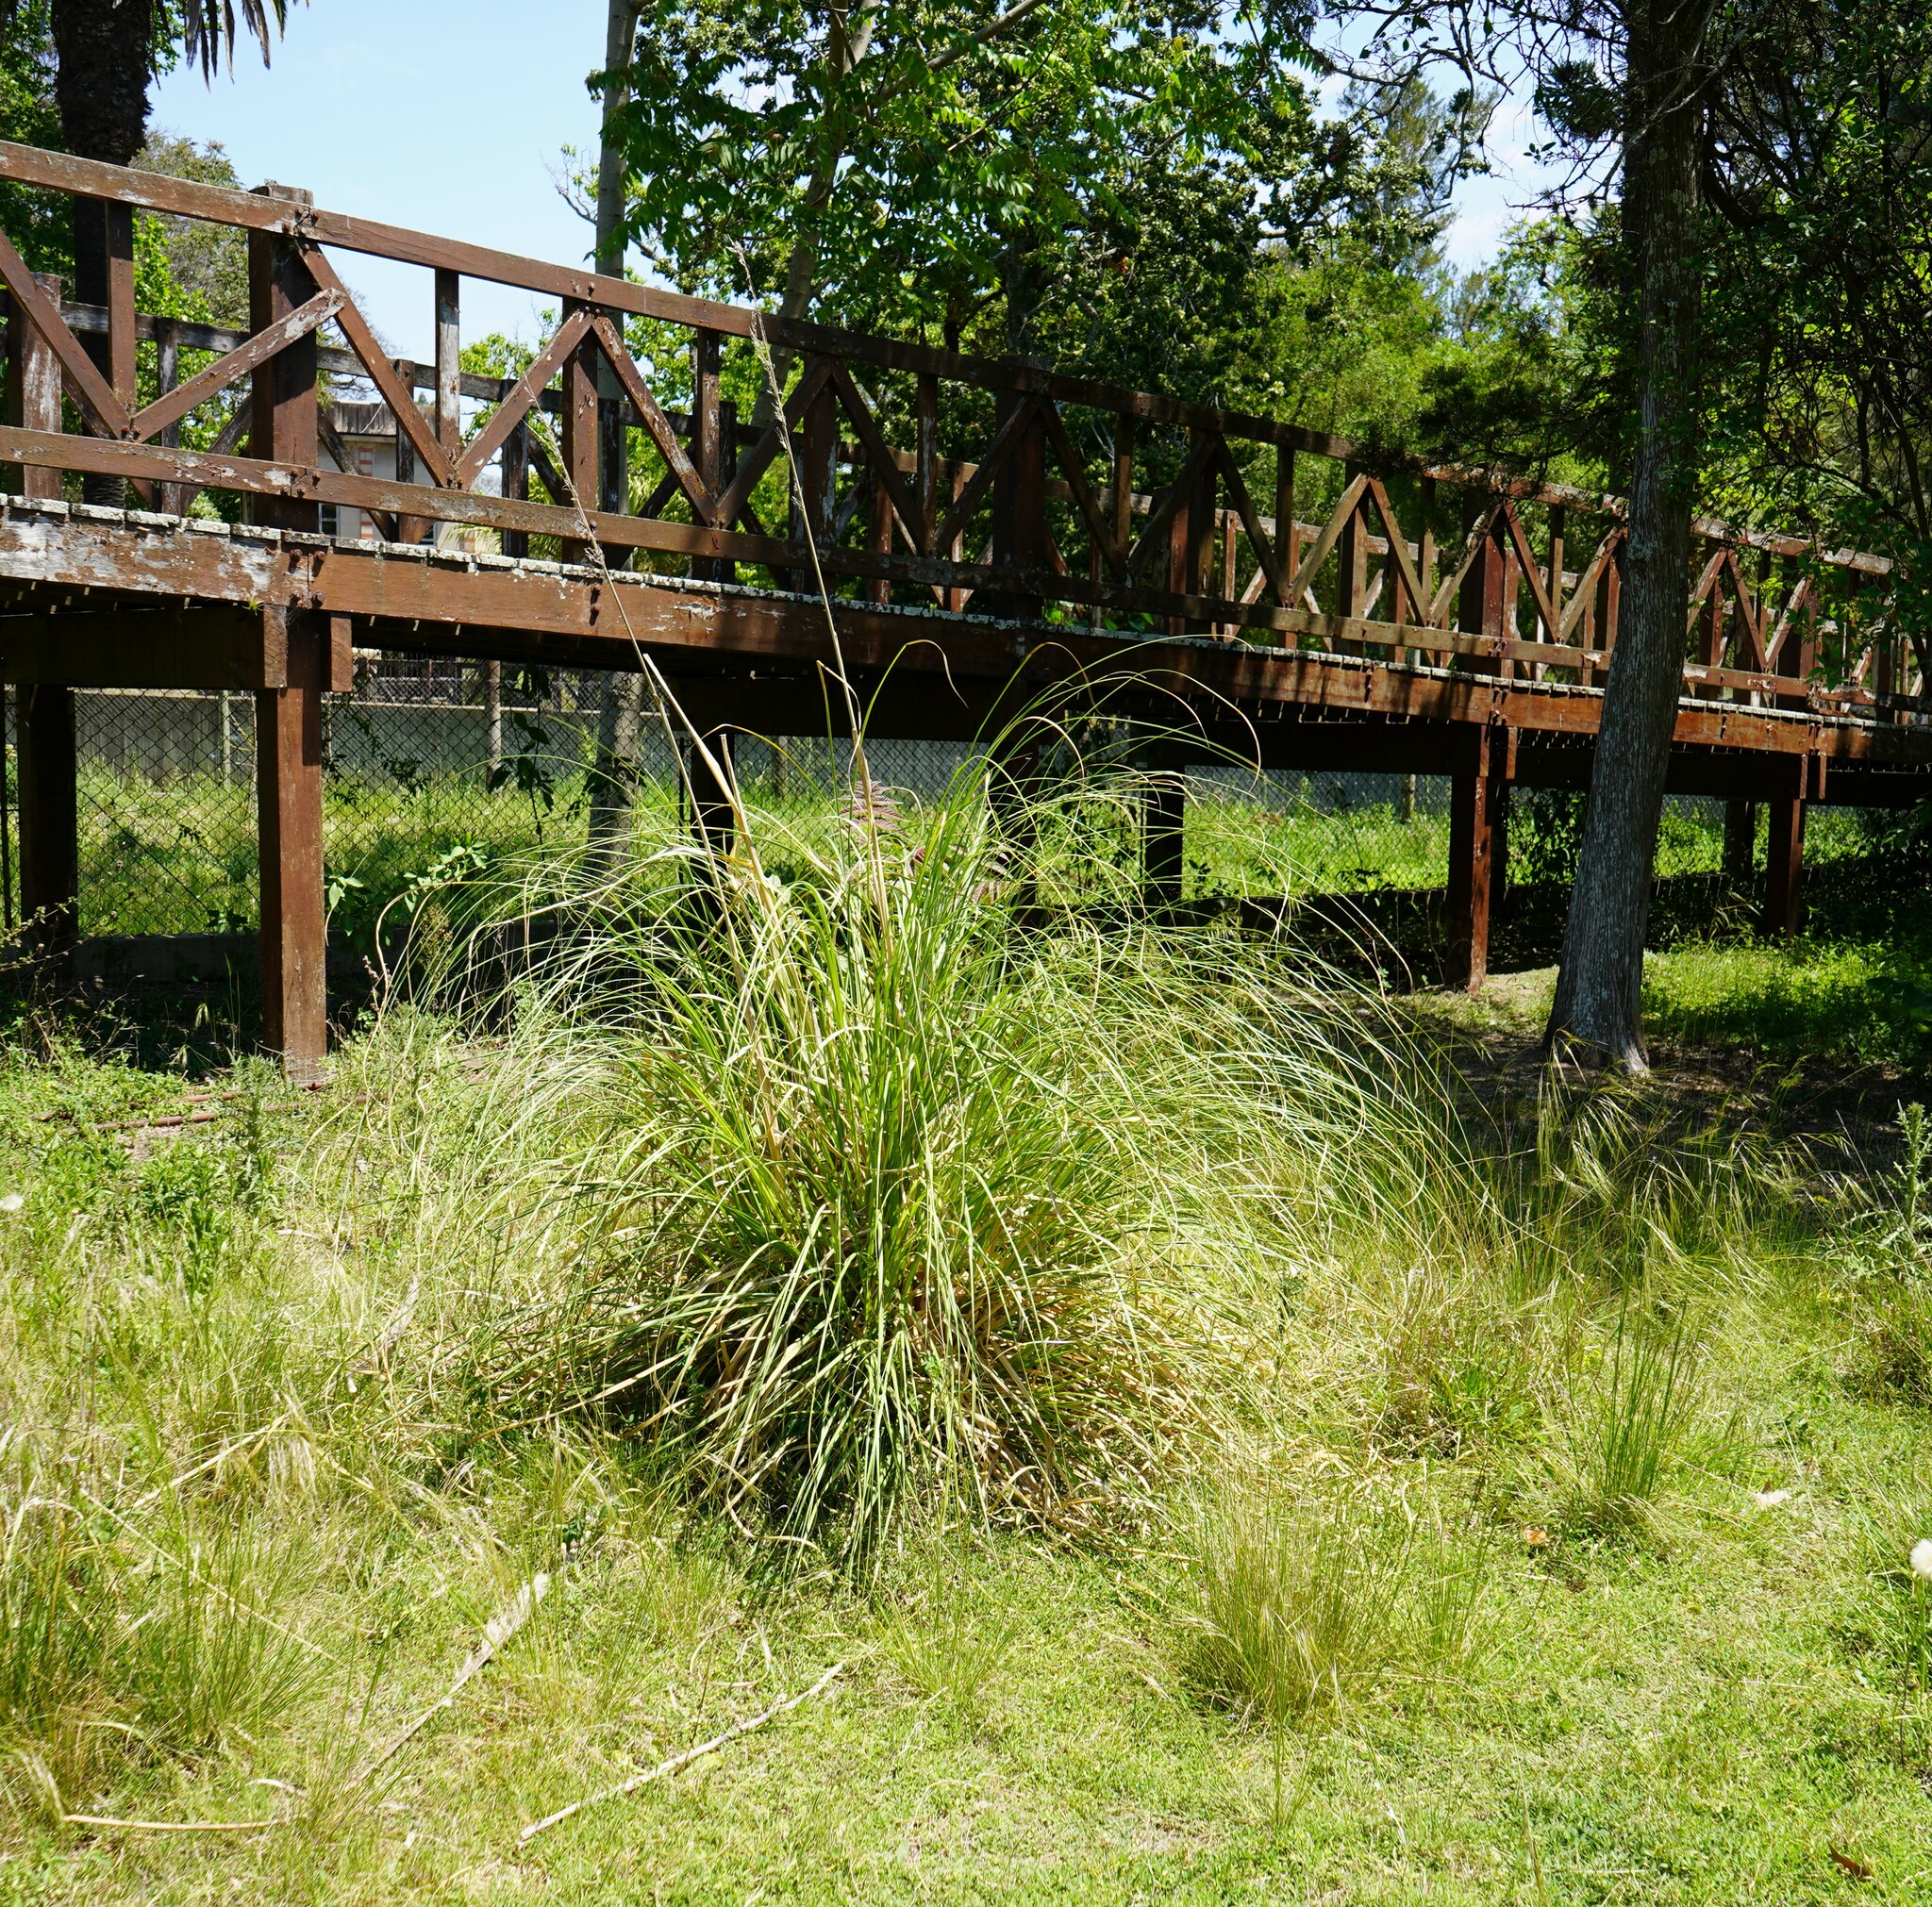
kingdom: Plantae
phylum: Tracheophyta
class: Liliopsida
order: Poales
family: Poaceae
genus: Cortaderia
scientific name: Cortaderia selloana
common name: Uruguayan pampas grass
